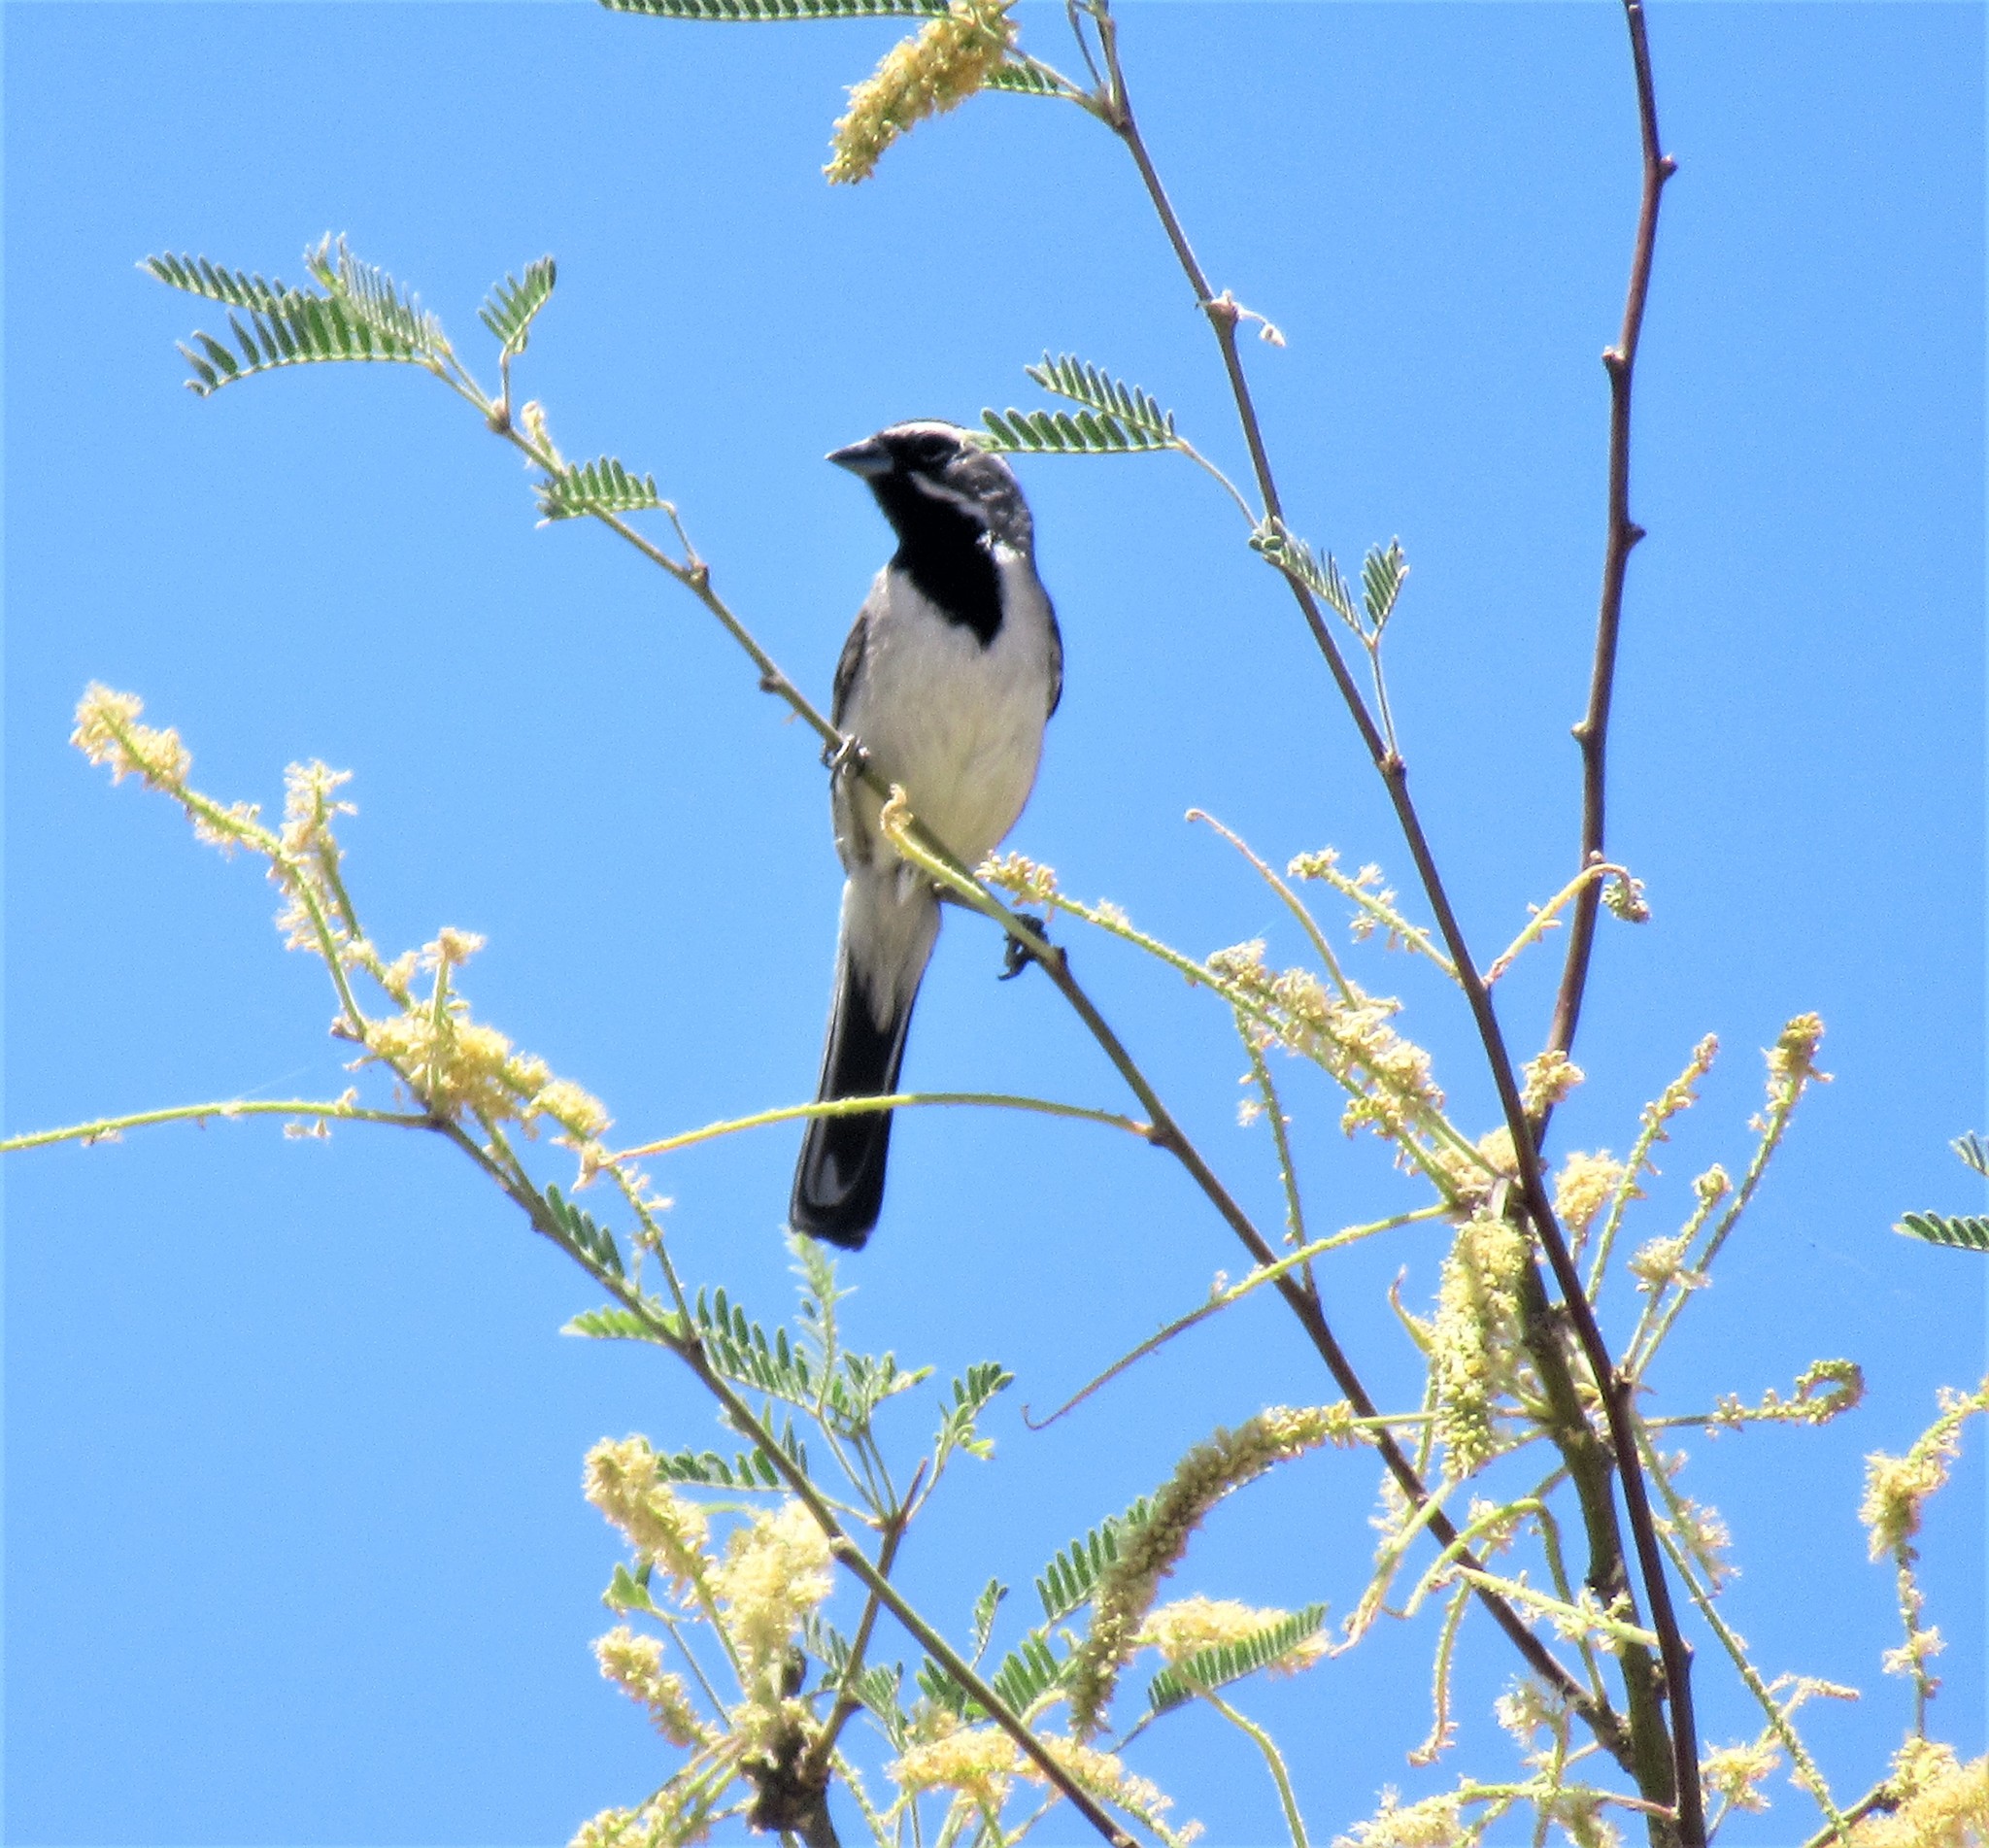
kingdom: Animalia
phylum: Chordata
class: Aves
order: Passeriformes
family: Passerellidae
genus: Amphispiza
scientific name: Amphispiza bilineata
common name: Black-throated sparrow
